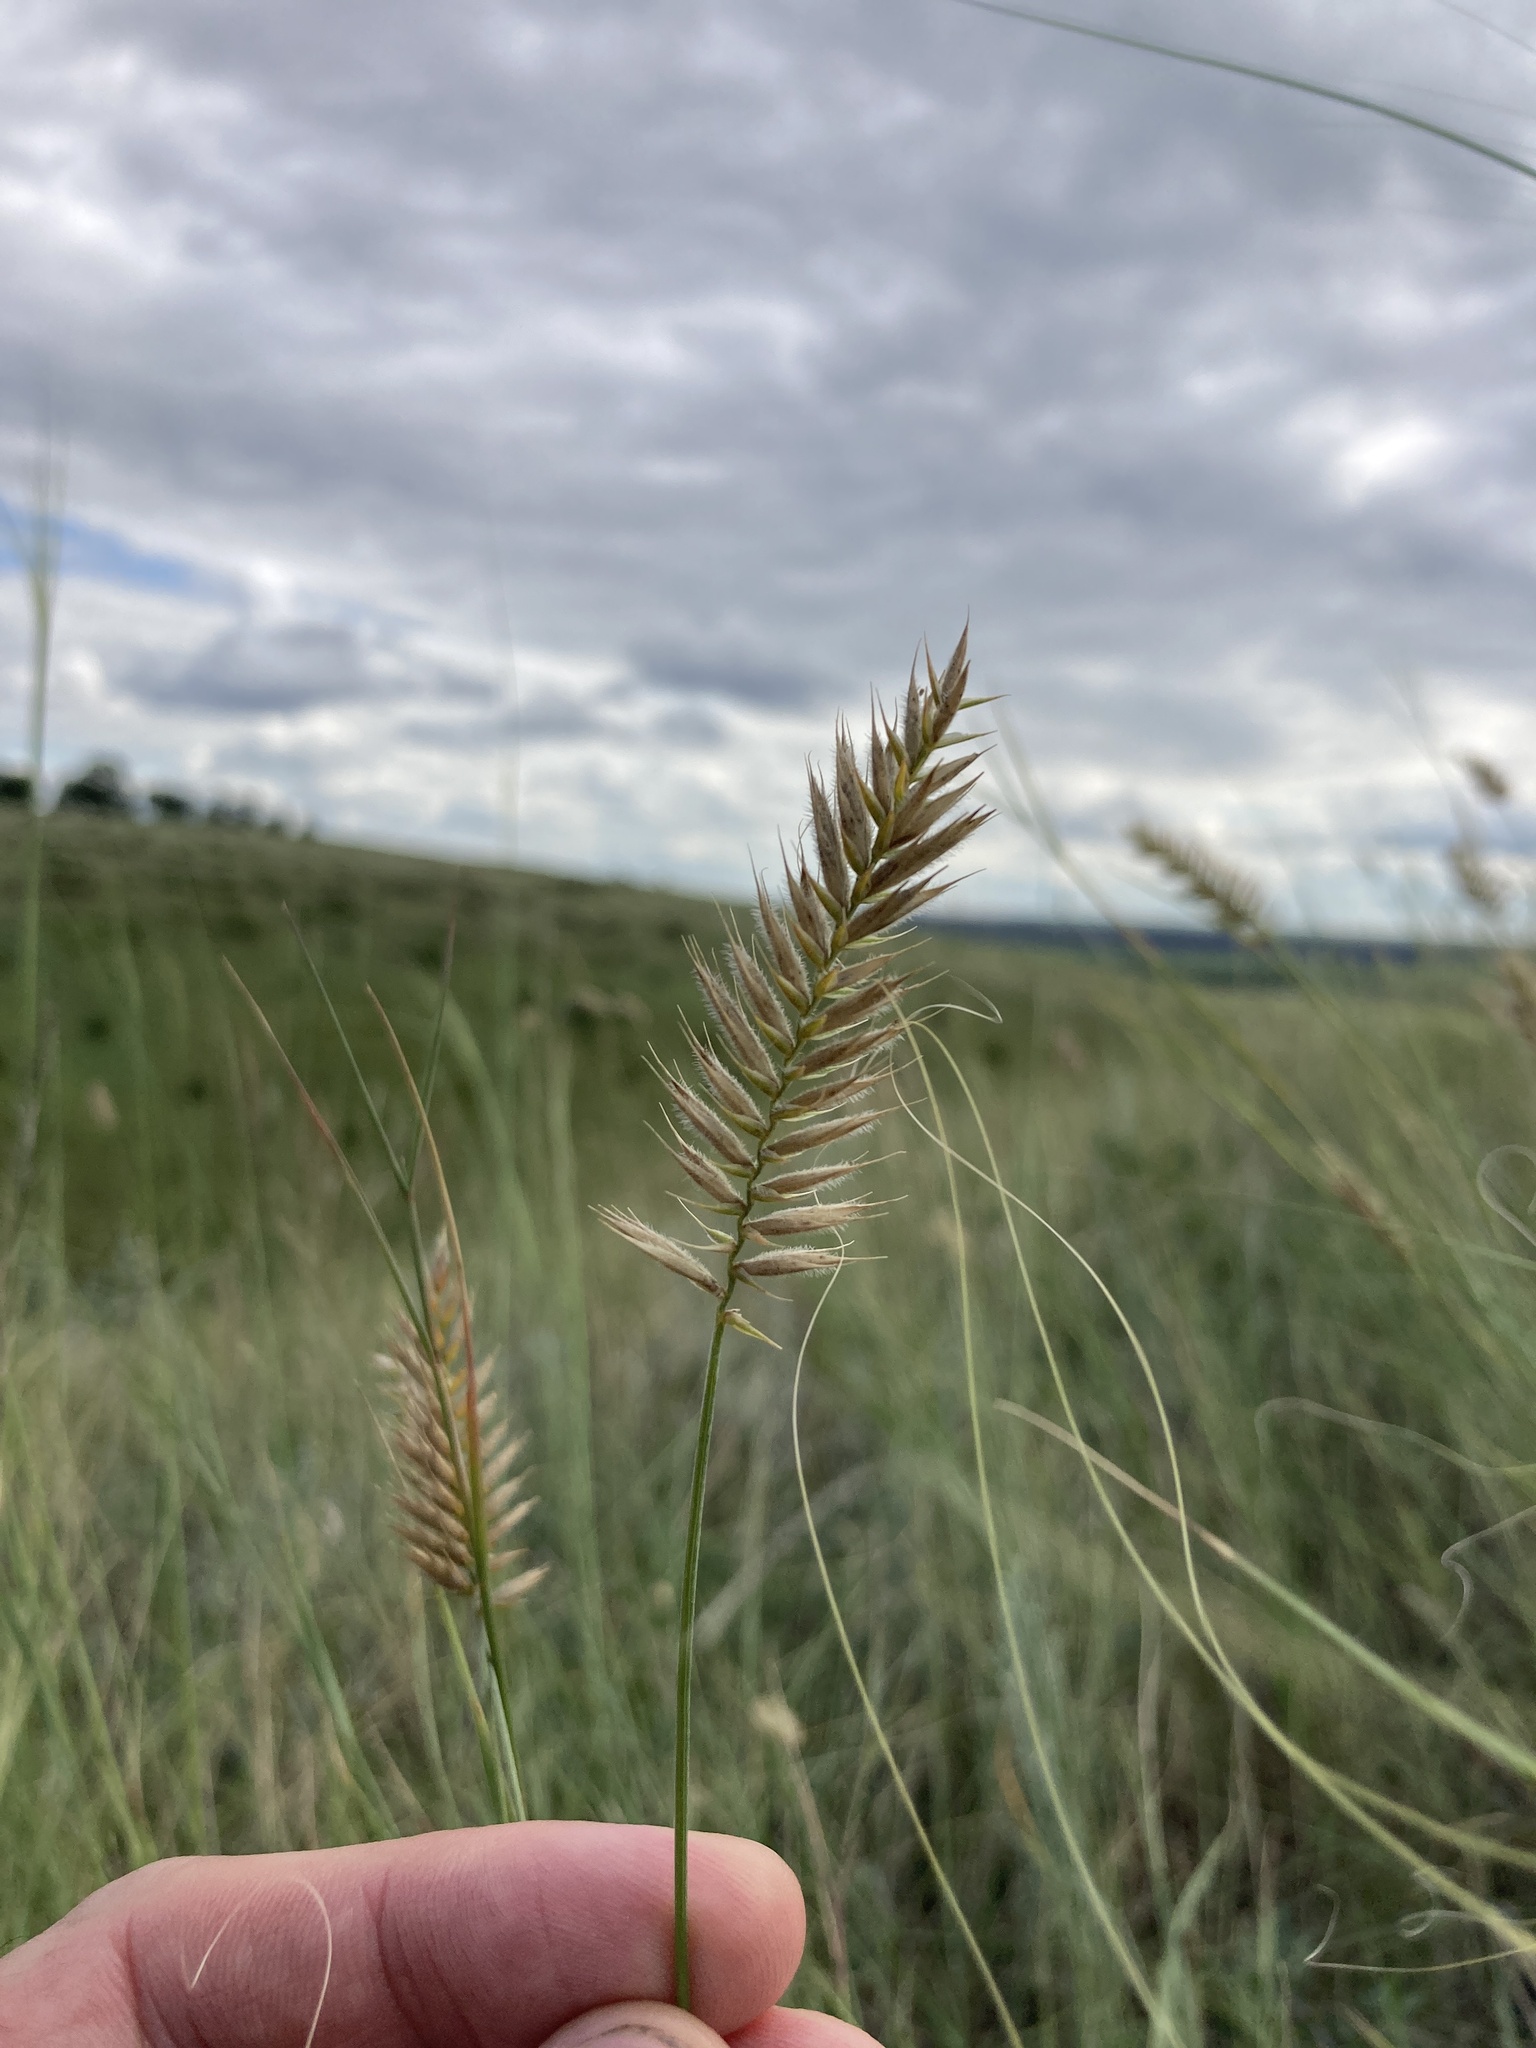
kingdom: Plantae
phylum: Tracheophyta
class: Liliopsida
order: Poales
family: Poaceae
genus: Agropyron
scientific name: Agropyron cristatum
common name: Crested wheatgrass
